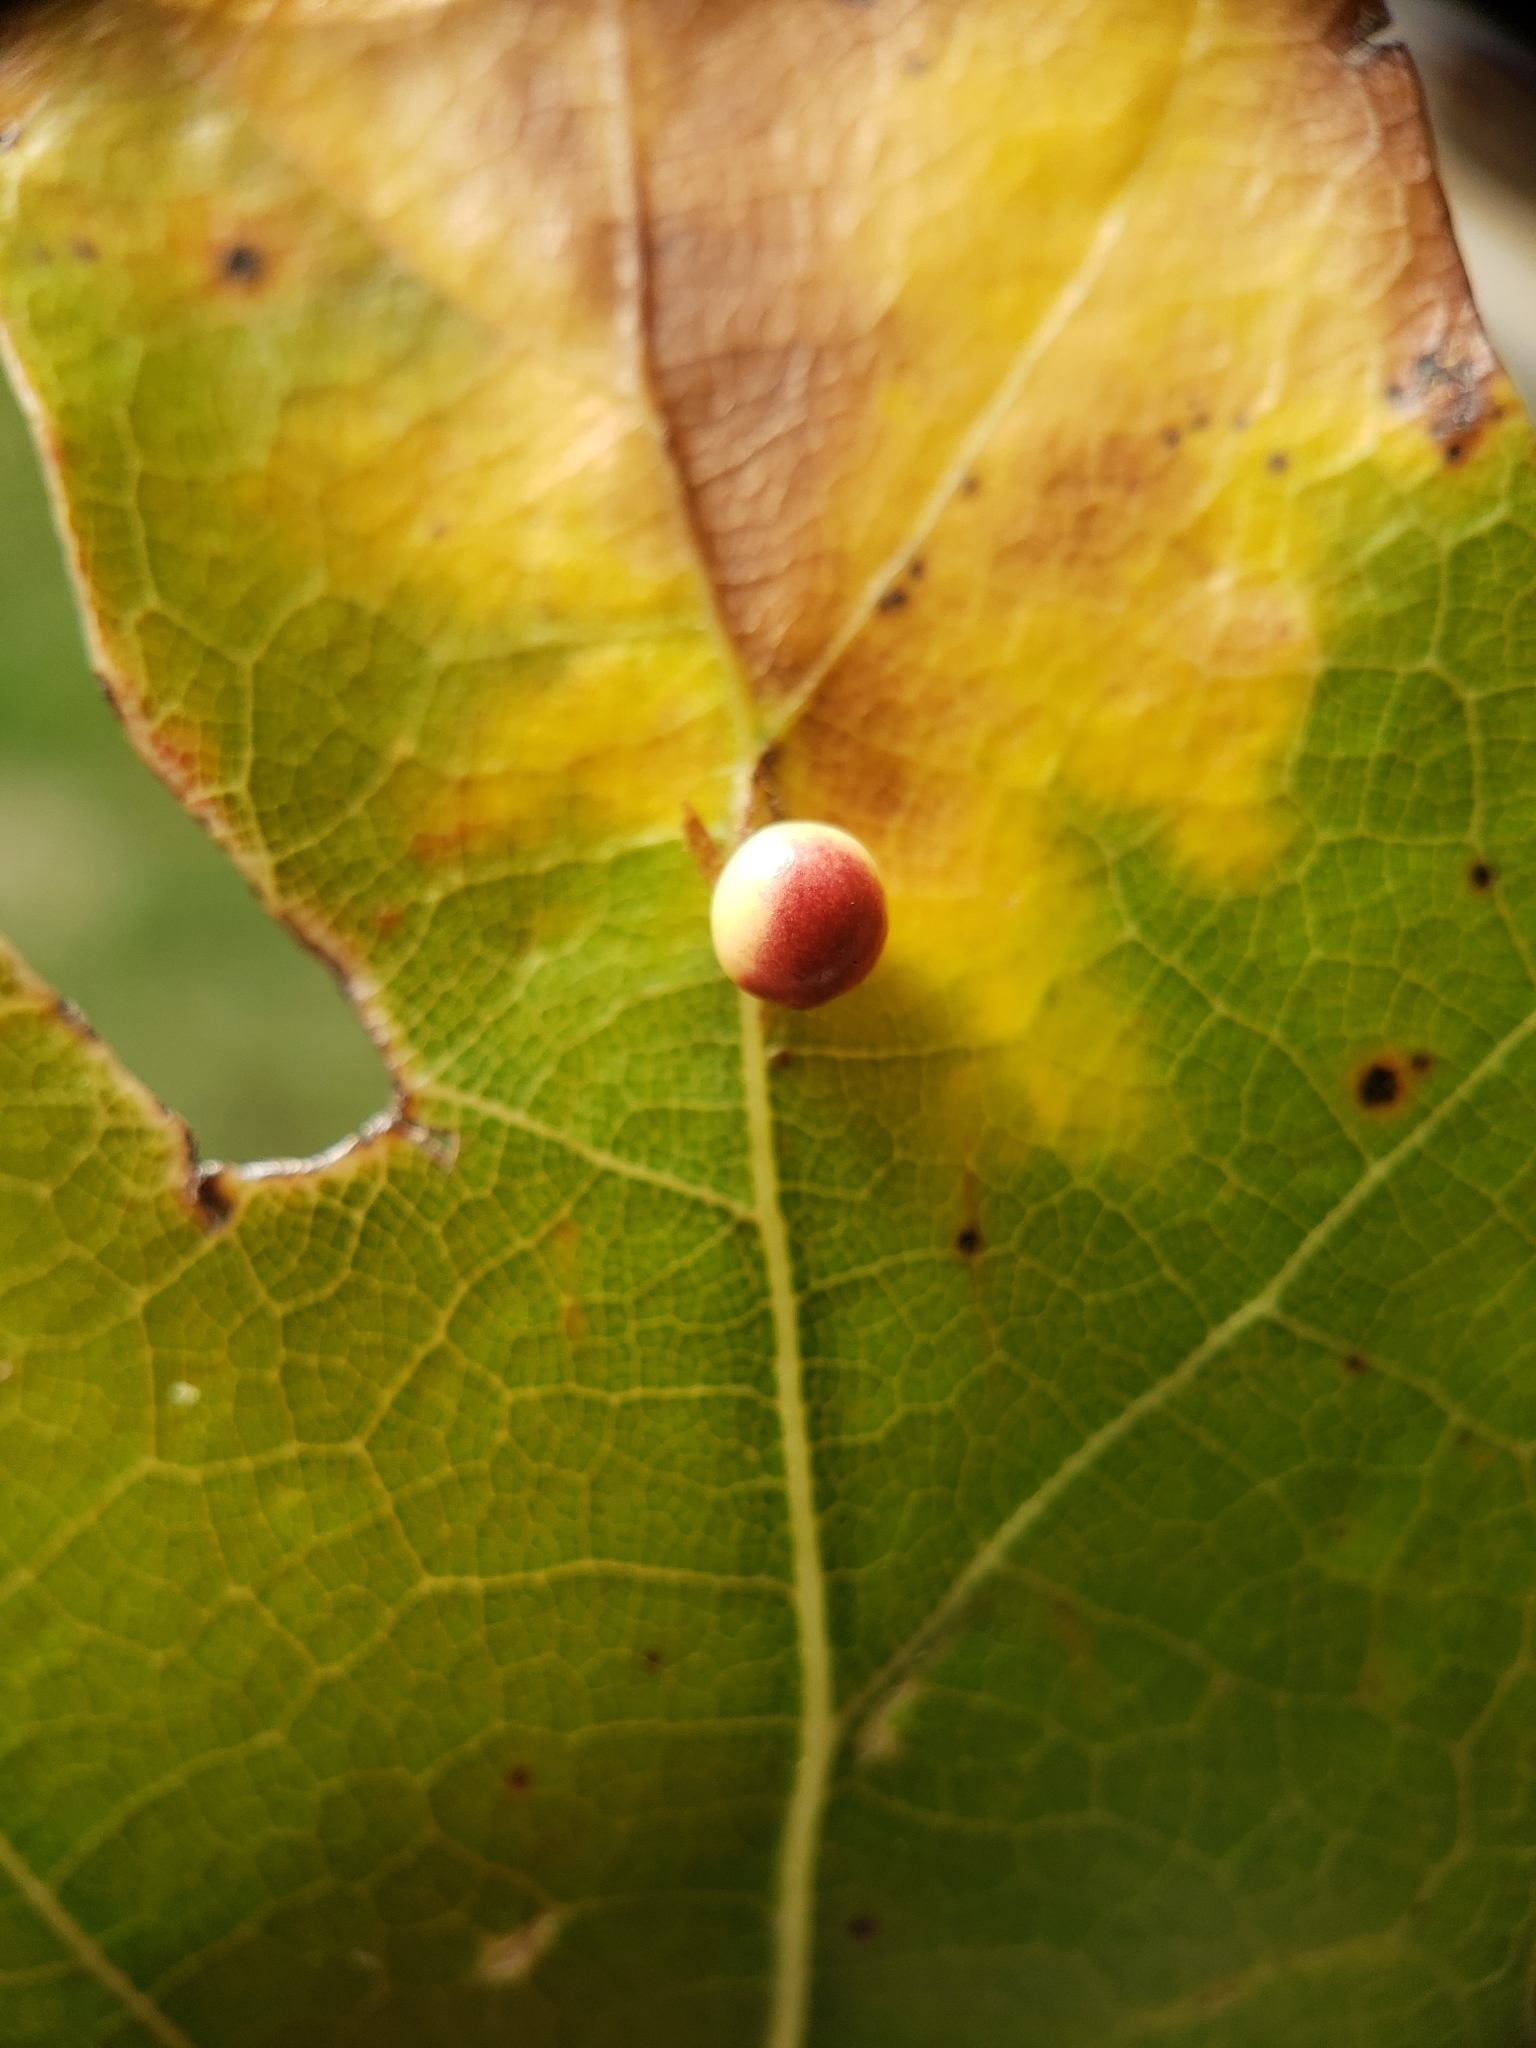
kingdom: Animalia
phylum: Arthropoda
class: Insecta
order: Hymenoptera
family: Cynipidae
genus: Zopheroteras
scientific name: Zopheroteras
